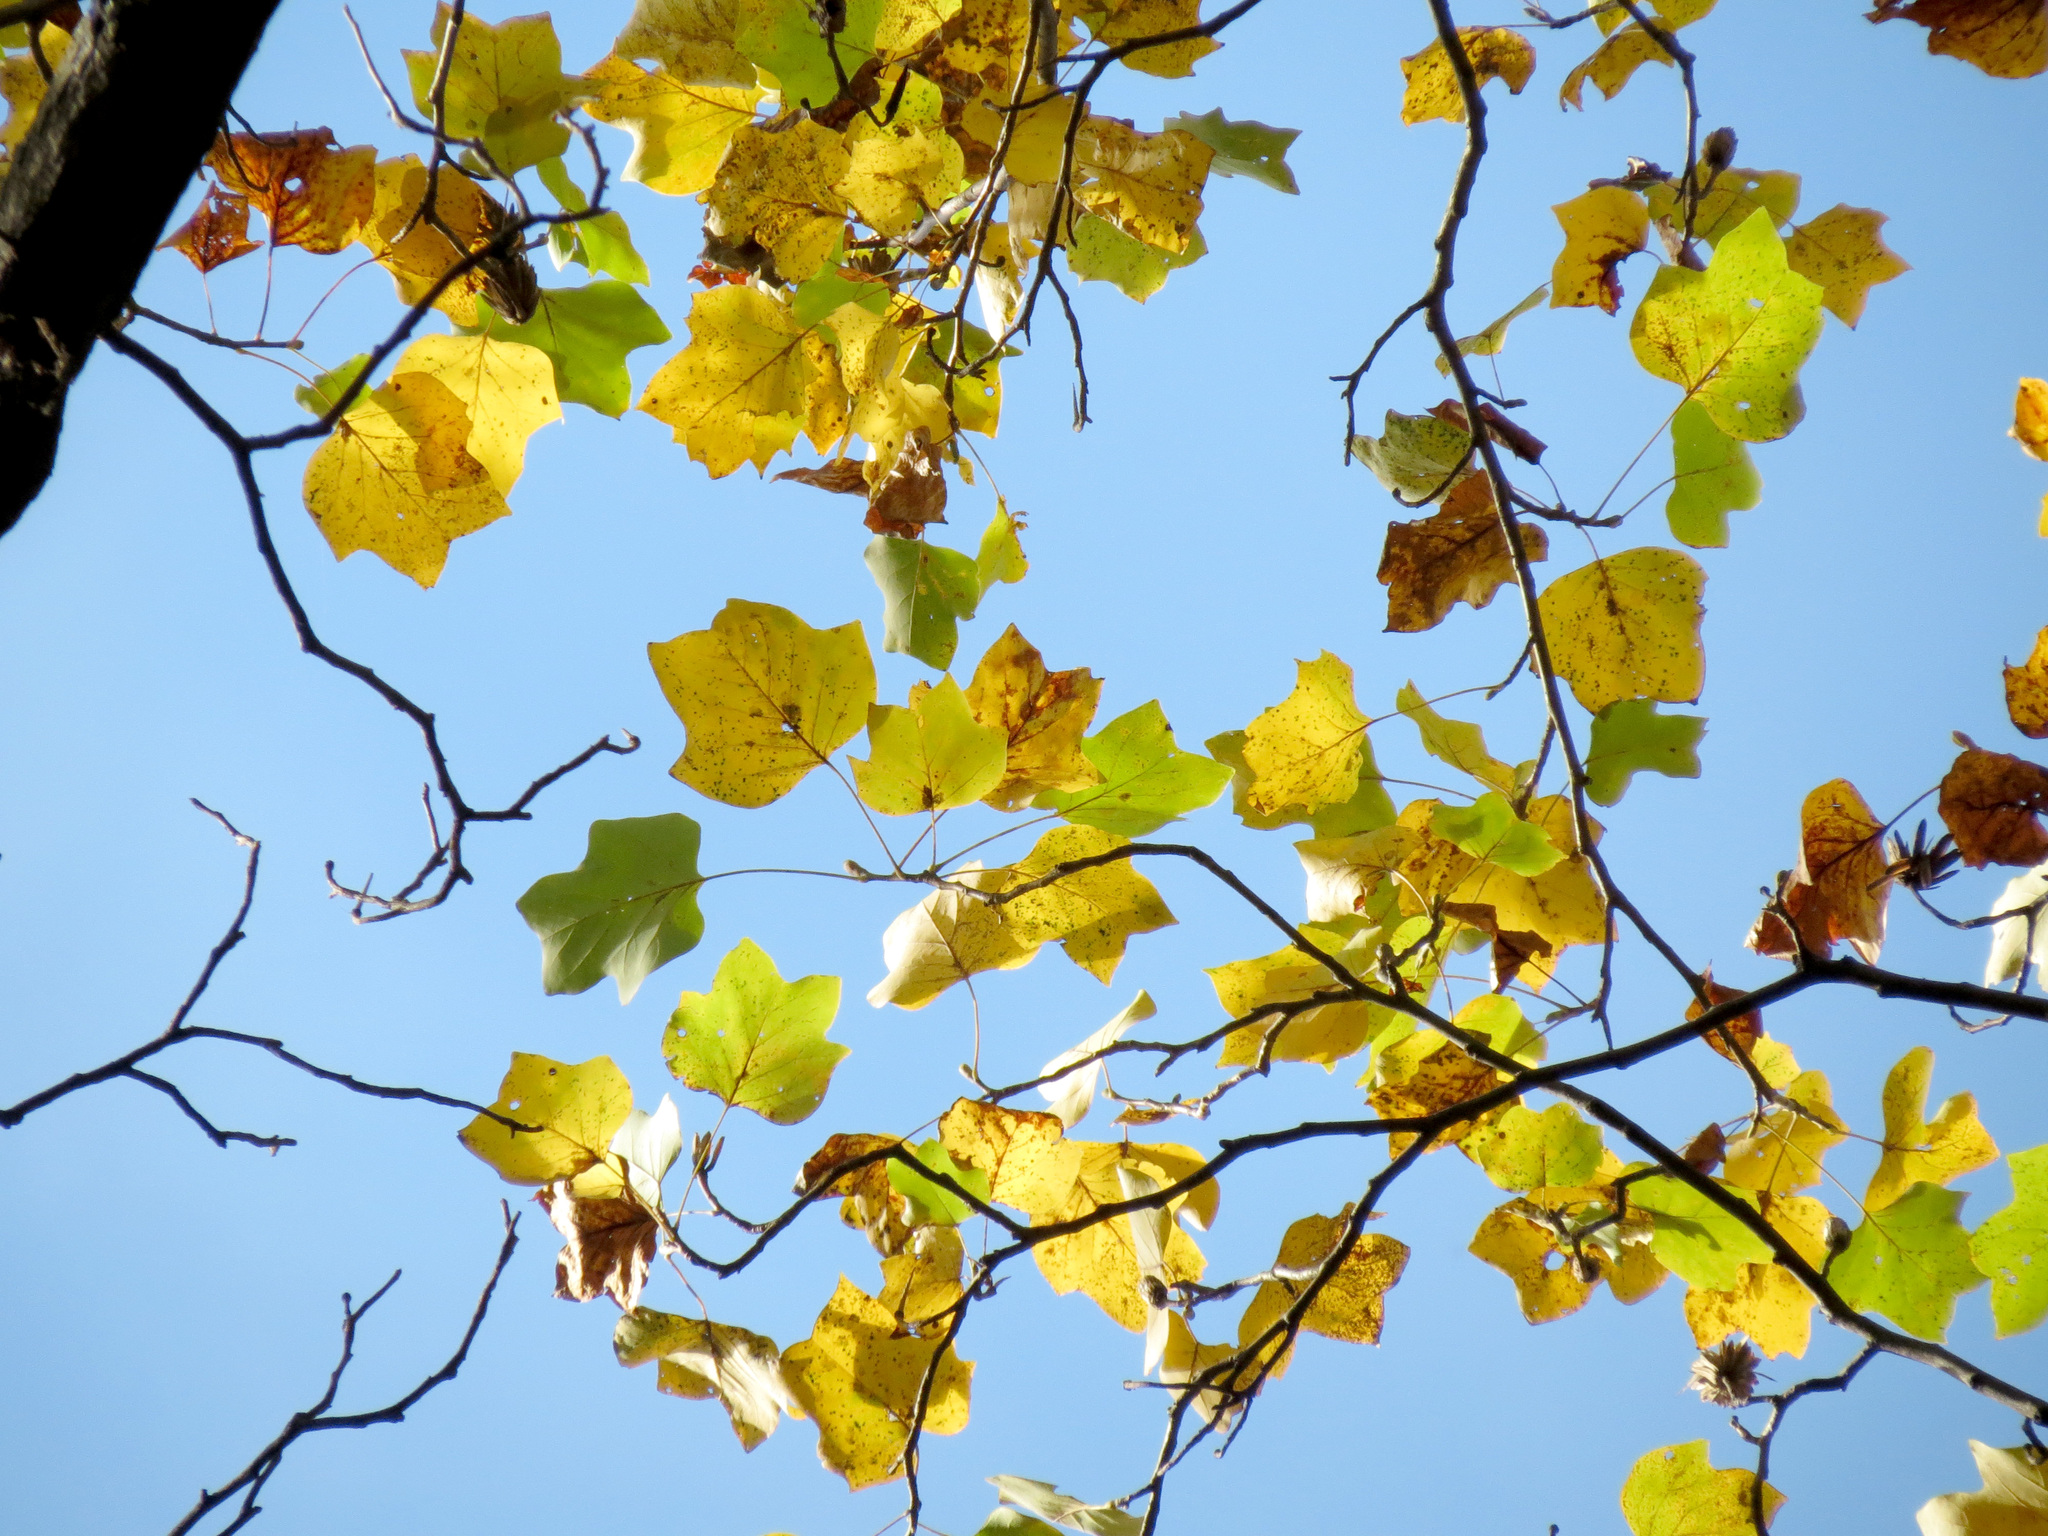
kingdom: Plantae
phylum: Tracheophyta
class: Magnoliopsida
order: Magnoliales
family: Magnoliaceae
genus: Liriodendron
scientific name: Liriodendron tulipifera
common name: Tulip tree
